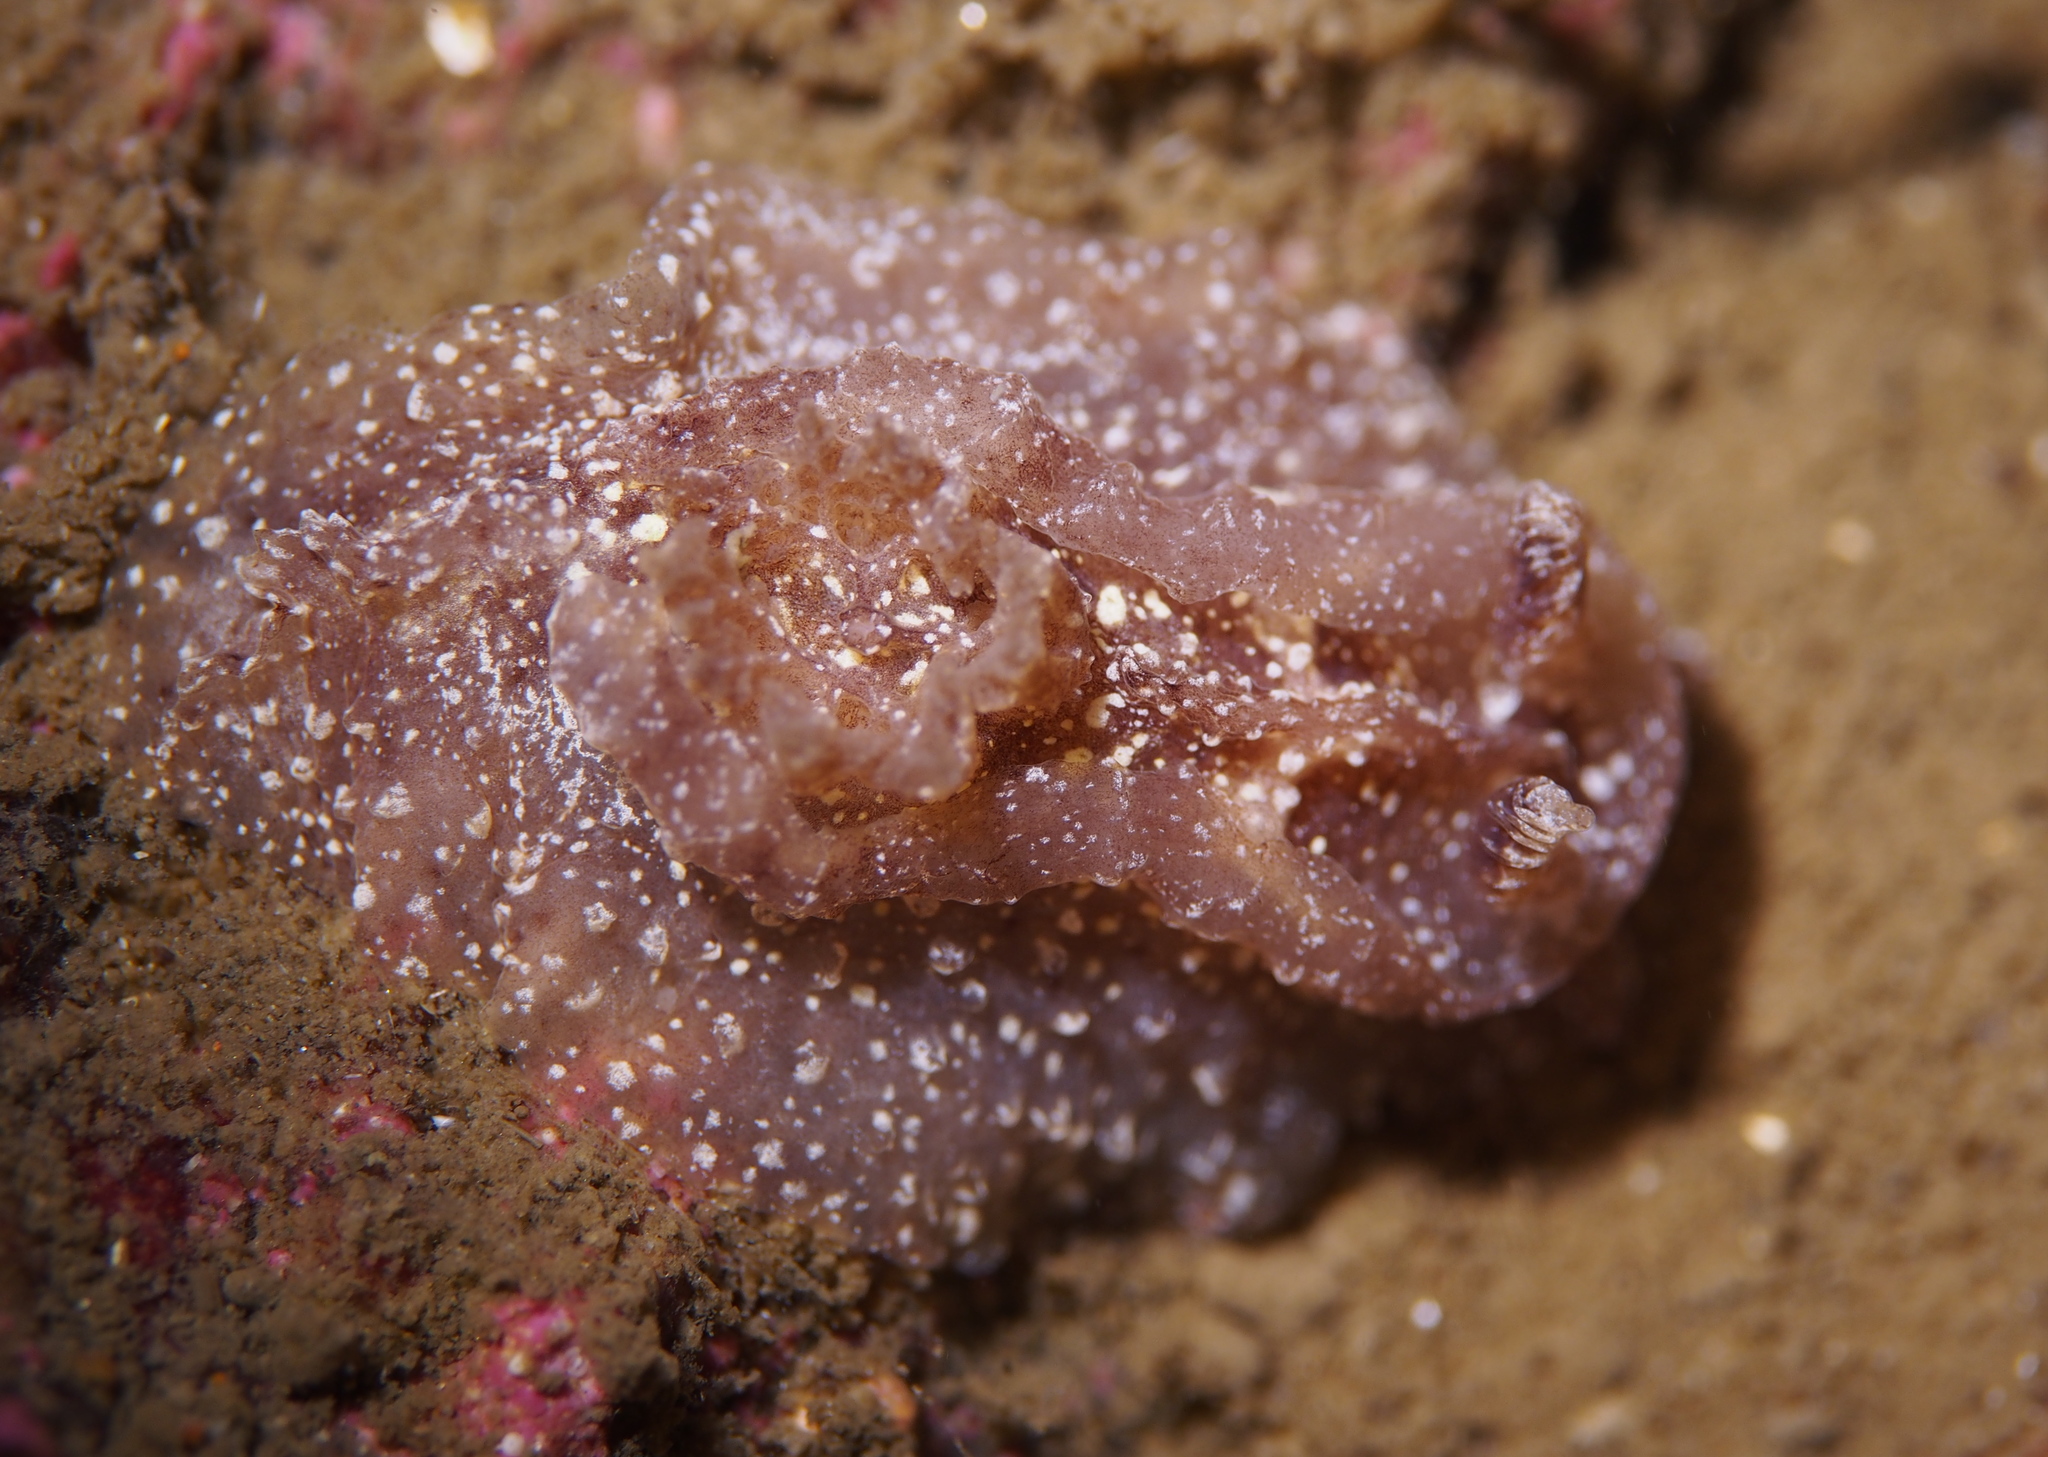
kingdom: Animalia
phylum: Mollusca
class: Gastropoda
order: Nudibranchia
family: Goniodorididae
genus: Pelagella
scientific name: Pelagella castanea
